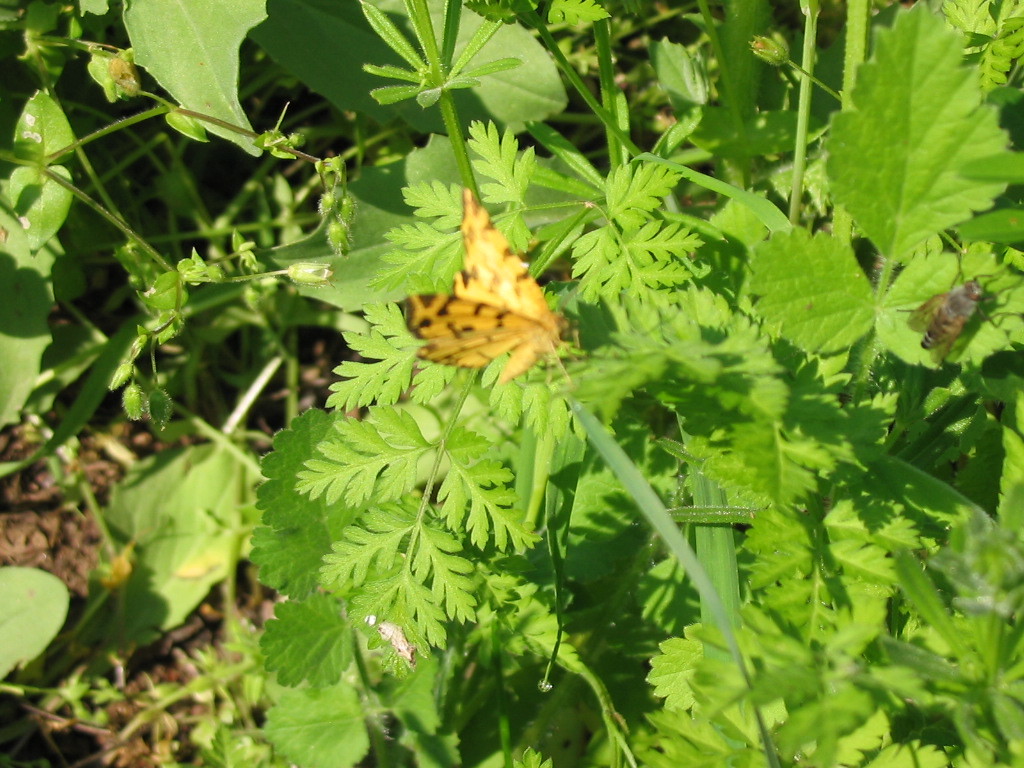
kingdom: Animalia
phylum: Arthropoda
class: Insecta
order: Lepidoptera
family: Geometridae
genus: Pseudopanthera
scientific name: Pseudopanthera macularia
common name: Speckled yellow
